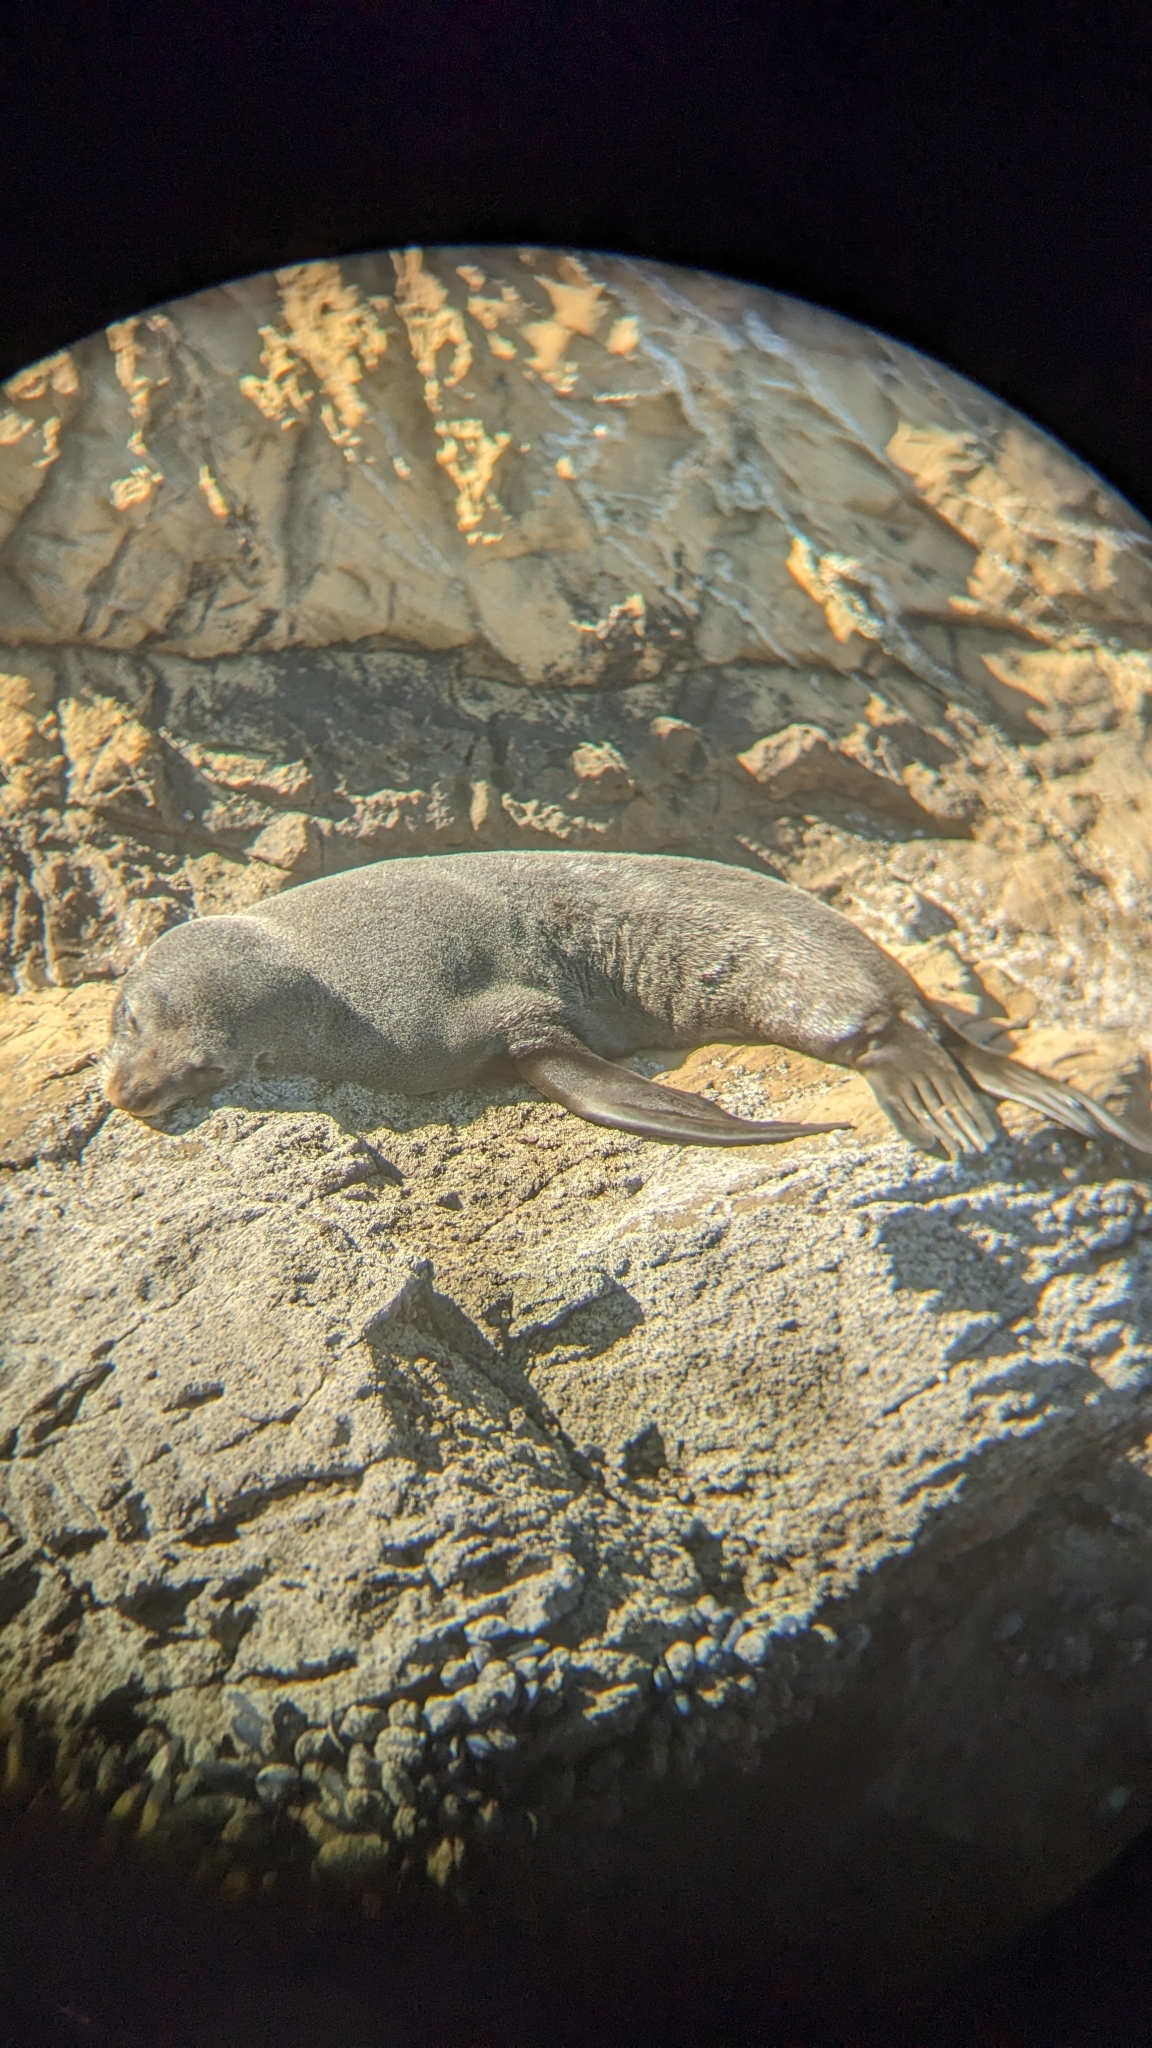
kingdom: Animalia
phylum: Chordata
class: Mammalia
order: Carnivora
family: Otariidae
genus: Arctocephalus
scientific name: Arctocephalus forsteri
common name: New zealand fur seal
